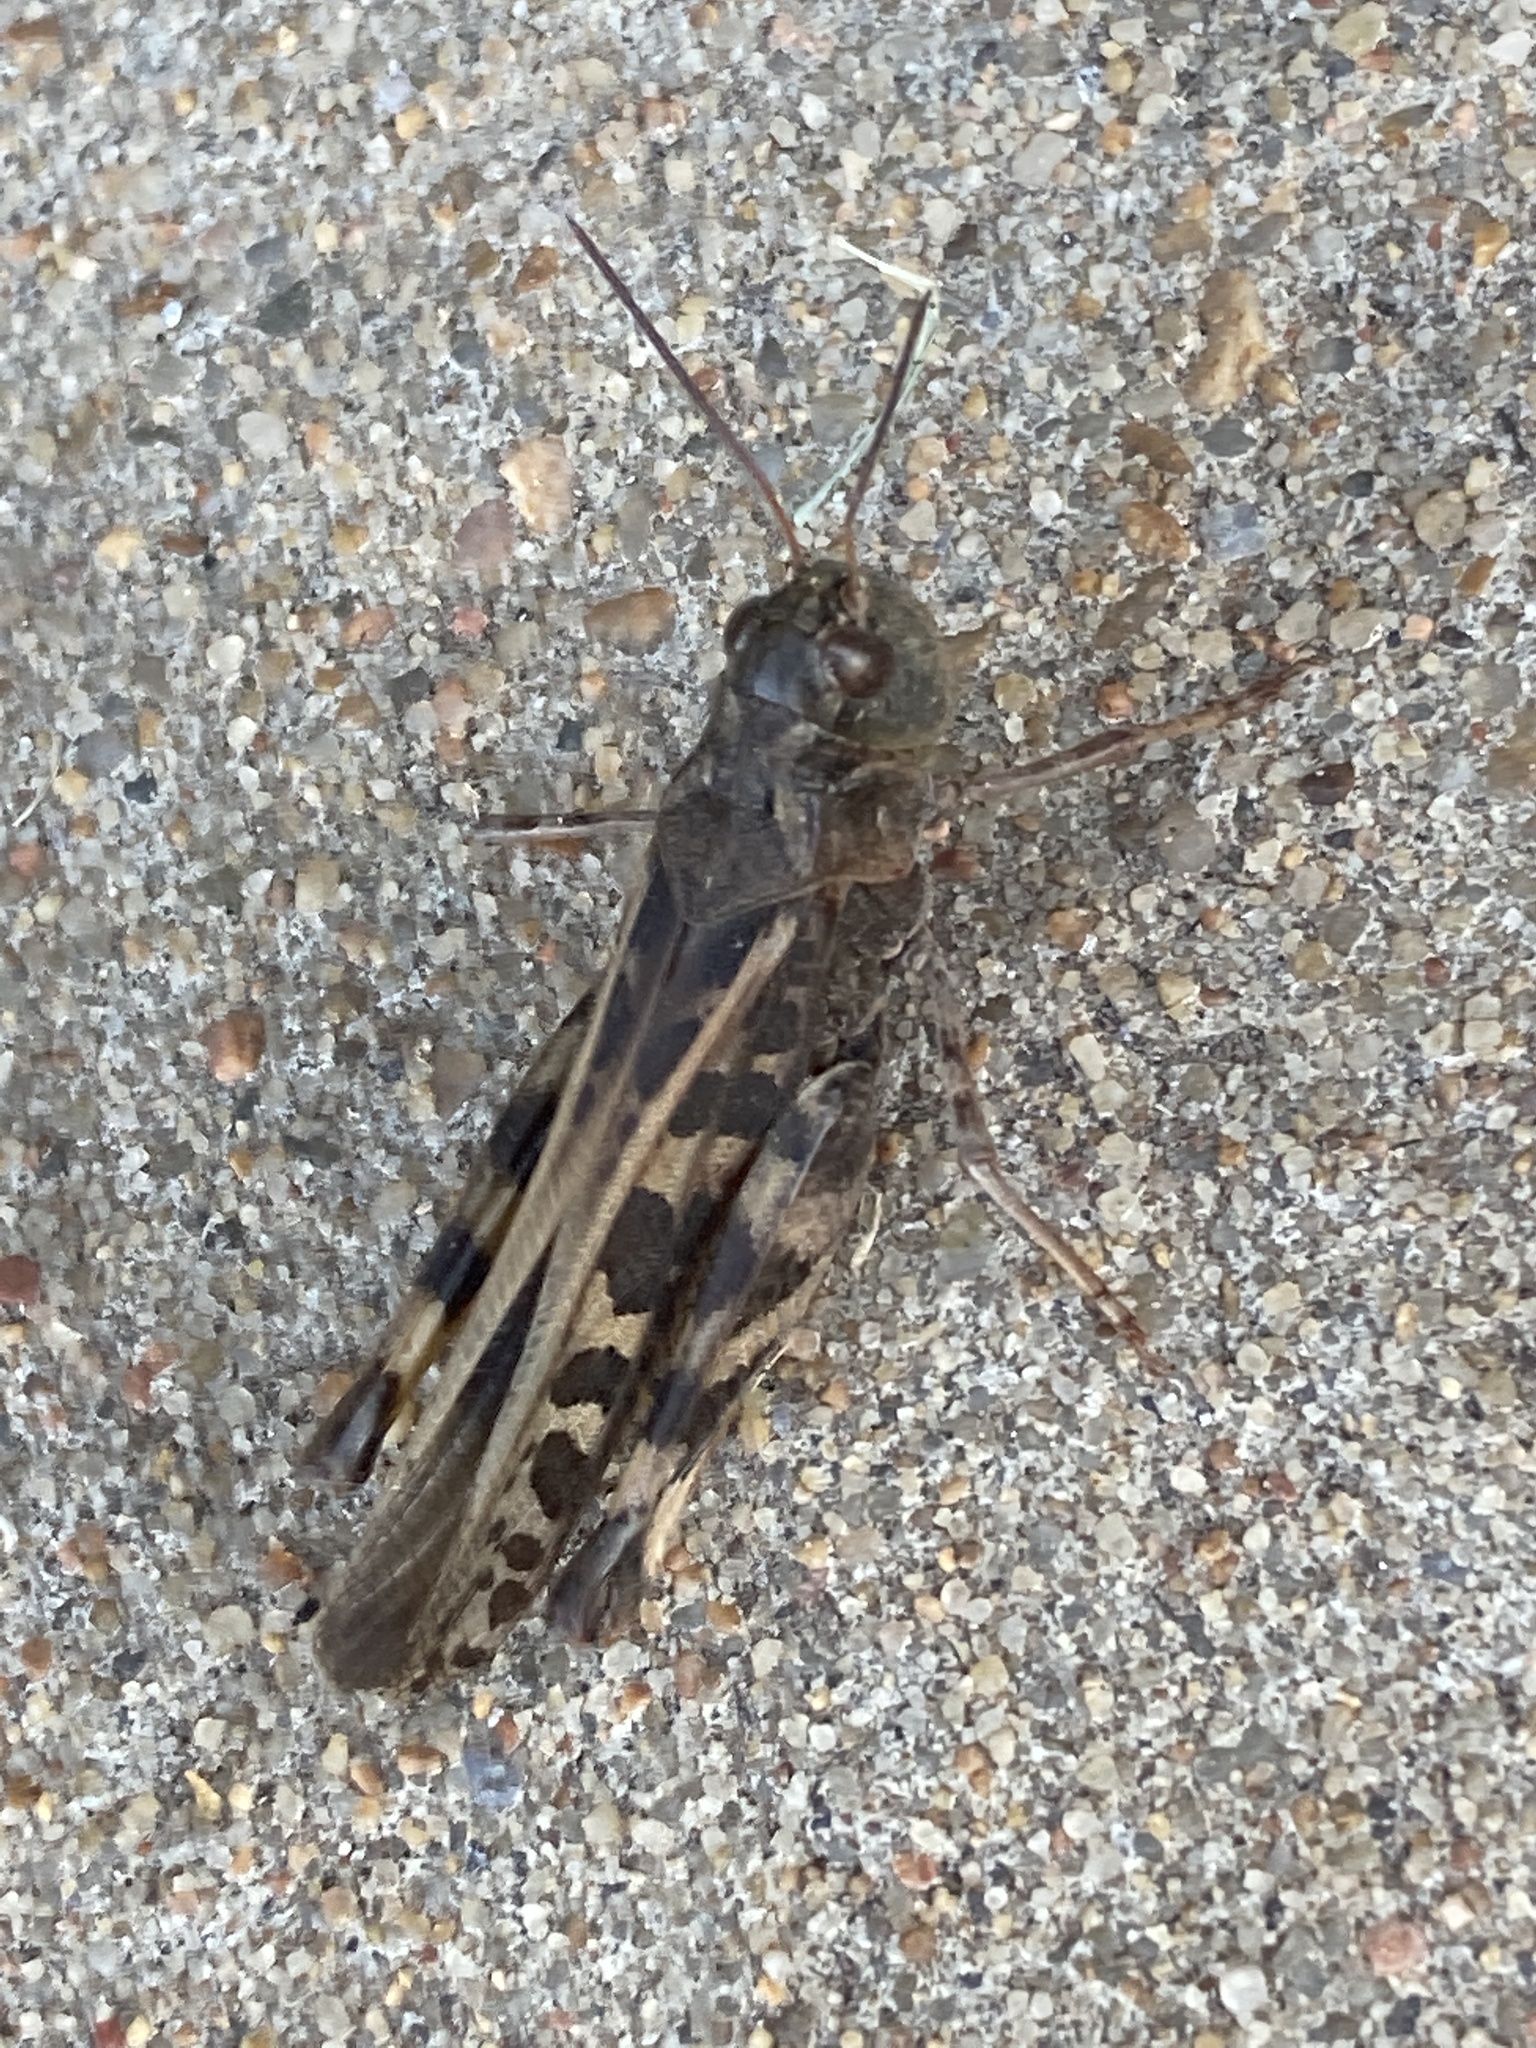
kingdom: Animalia
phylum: Arthropoda
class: Insecta
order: Orthoptera
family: Acrididae
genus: Hippiscus
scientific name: Hippiscus ocelote
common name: Wrinkled grasshopper
